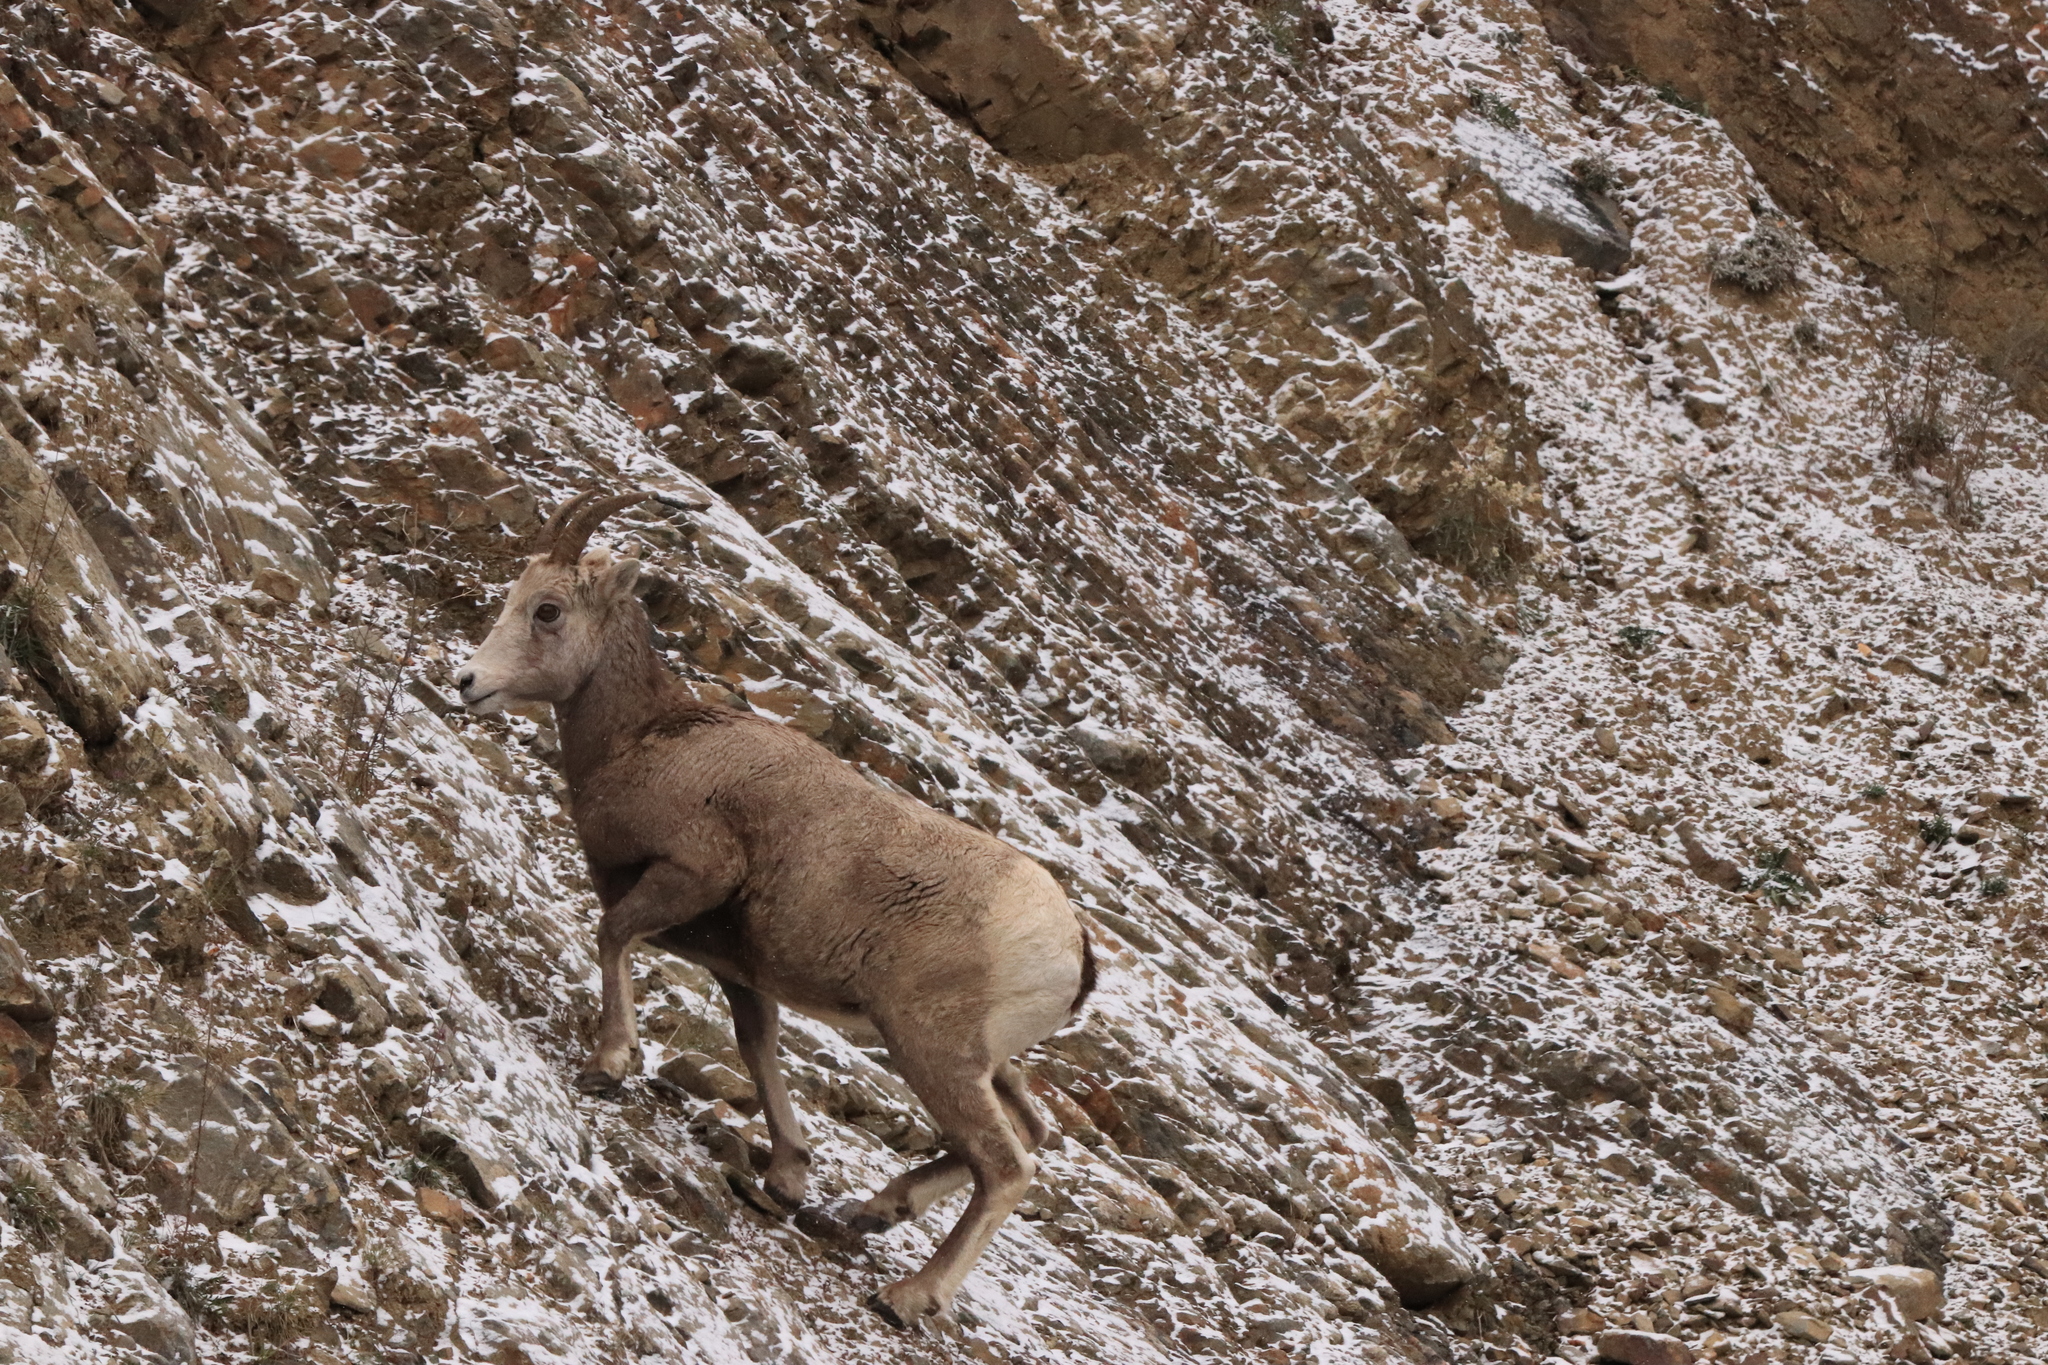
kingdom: Animalia
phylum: Chordata
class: Mammalia
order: Artiodactyla
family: Bovidae
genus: Ovis
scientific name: Ovis canadensis
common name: Bighorn sheep
